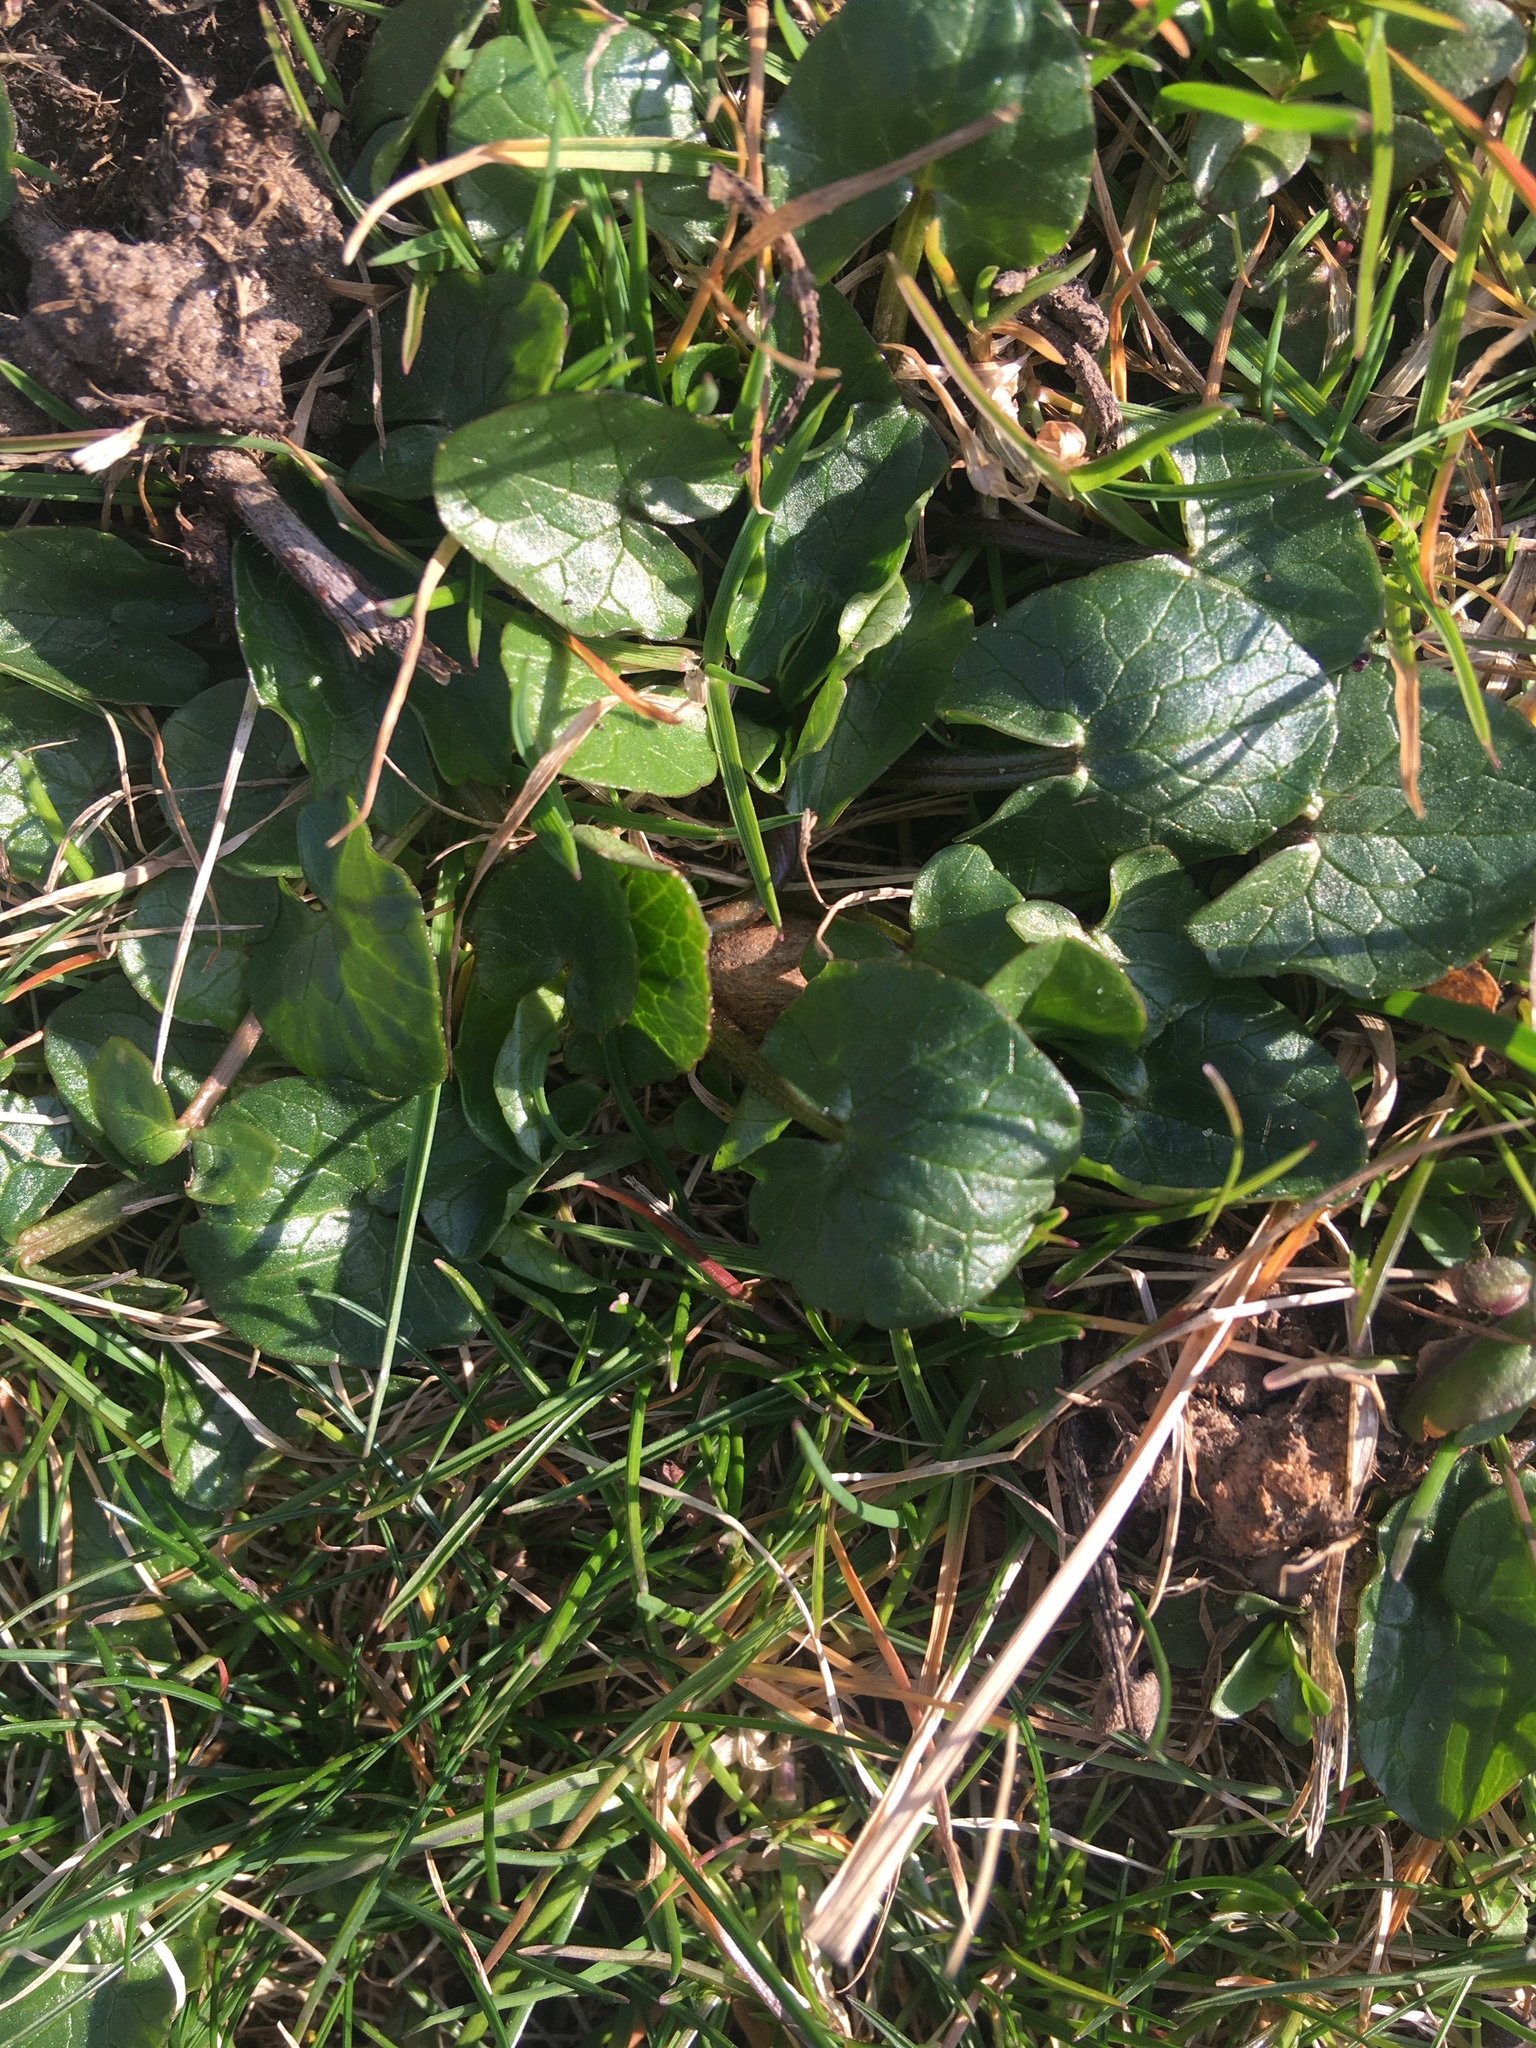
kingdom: Plantae
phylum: Tracheophyta
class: Magnoliopsida
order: Ranunculales
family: Ranunculaceae
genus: Ficaria
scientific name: Ficaria verna
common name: Lesser celandine
